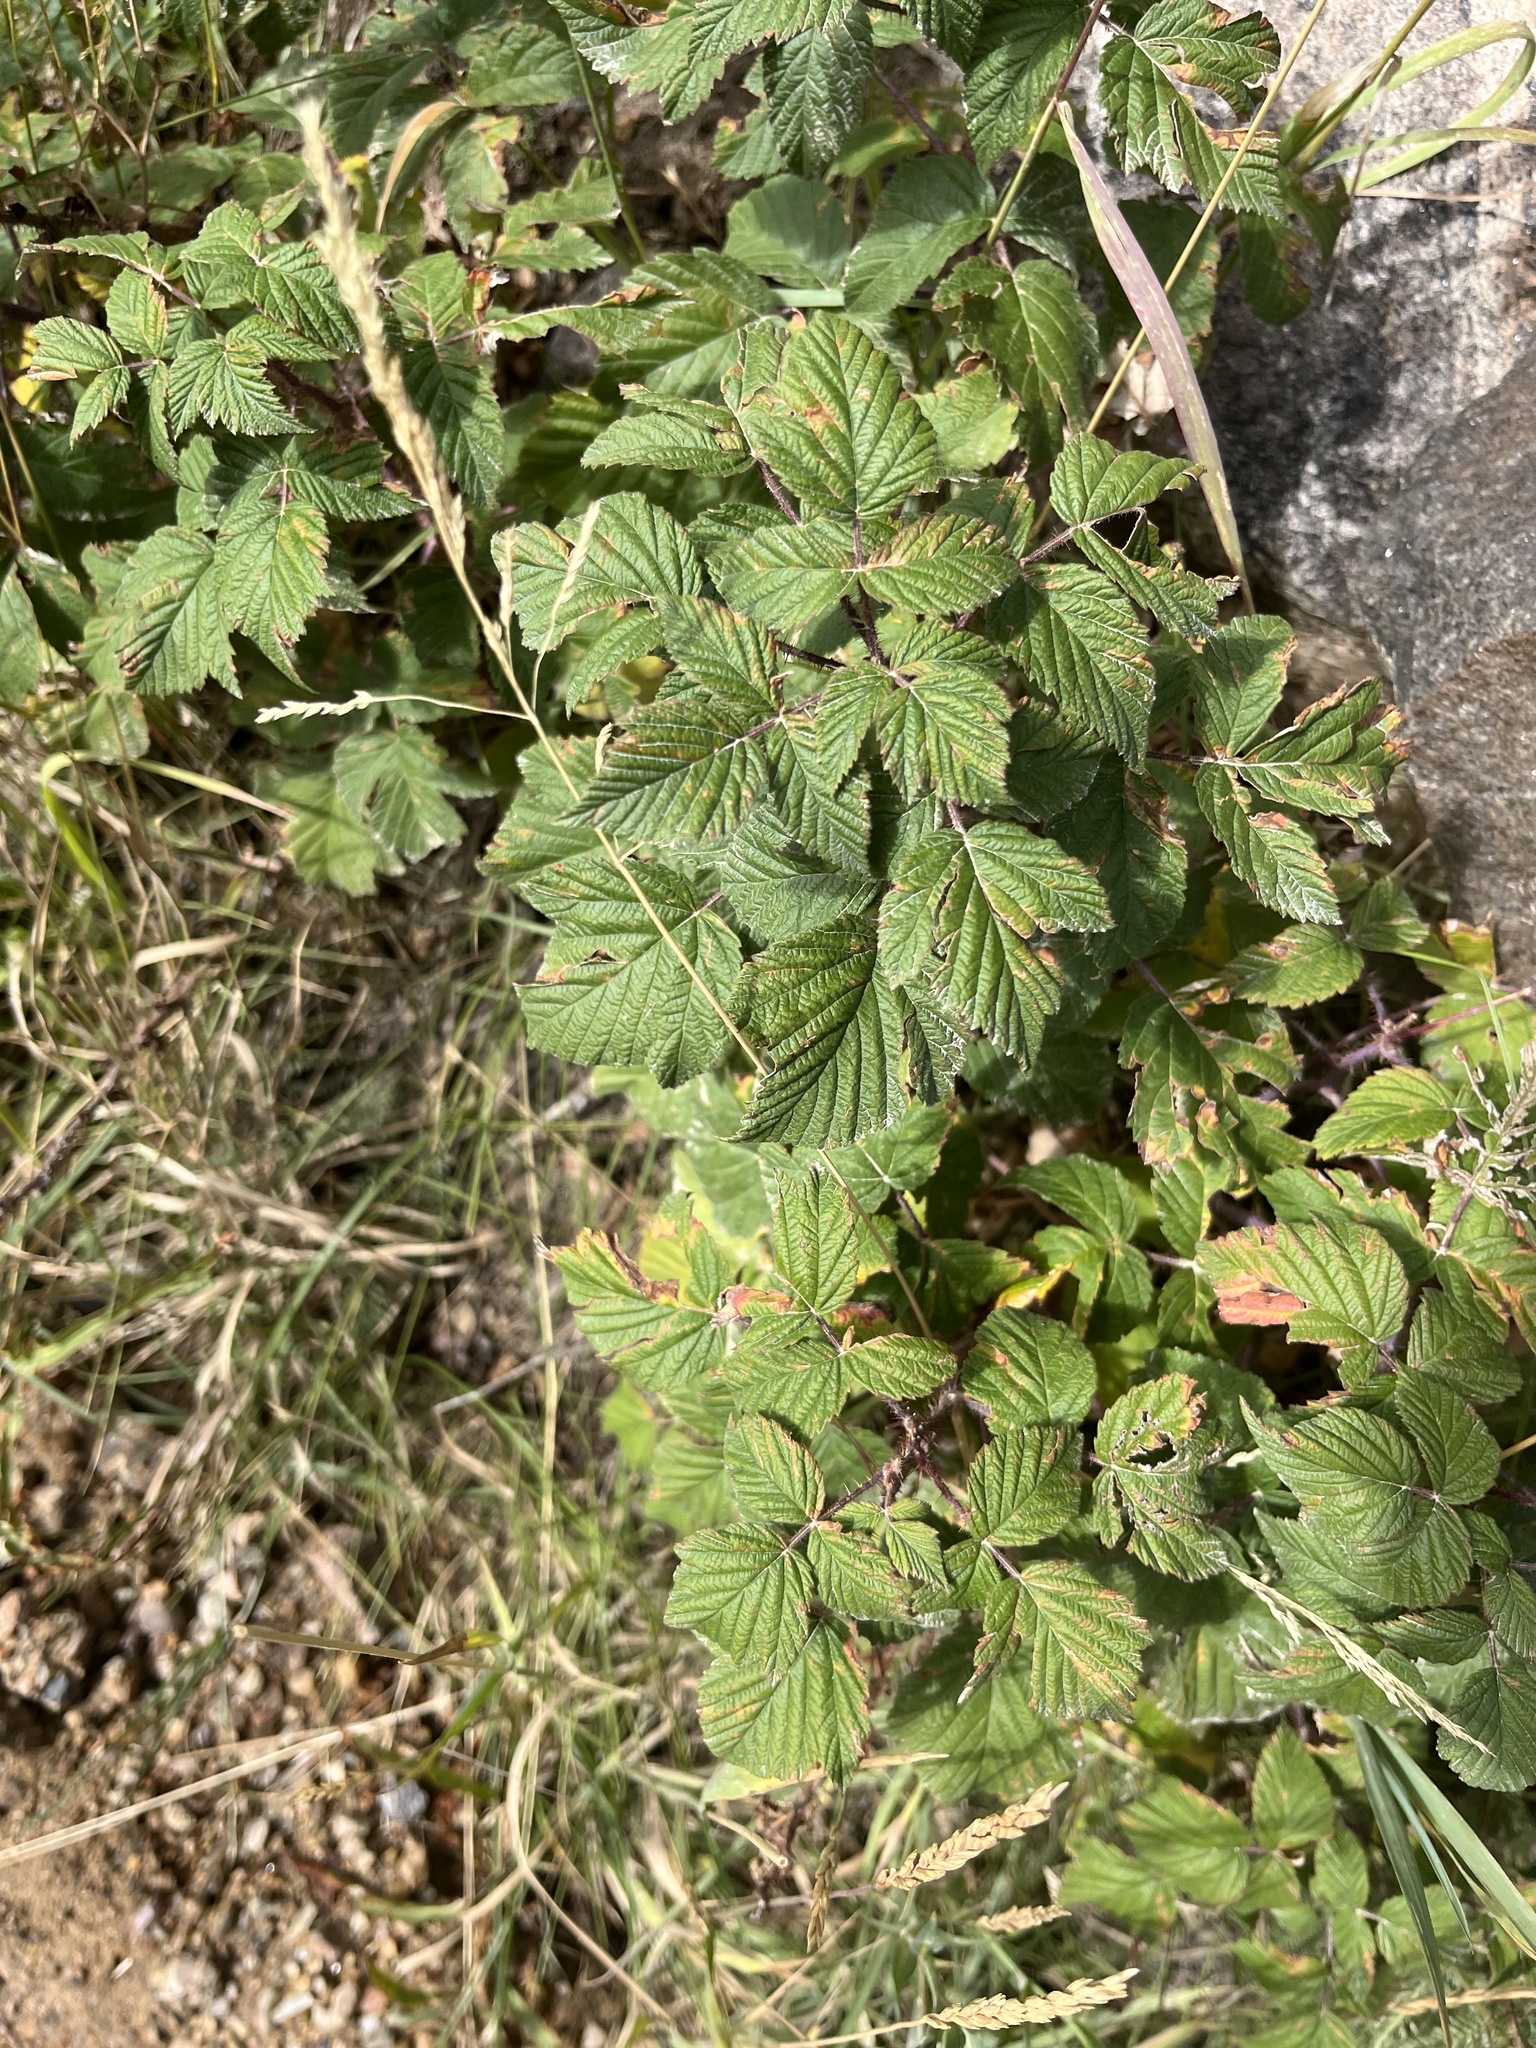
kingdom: Plantae
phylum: Tracheophyta
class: Magnoliopsida
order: Rosales
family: Rosaceae
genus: Rubus
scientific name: Rubus idaeus
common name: Raspberry
